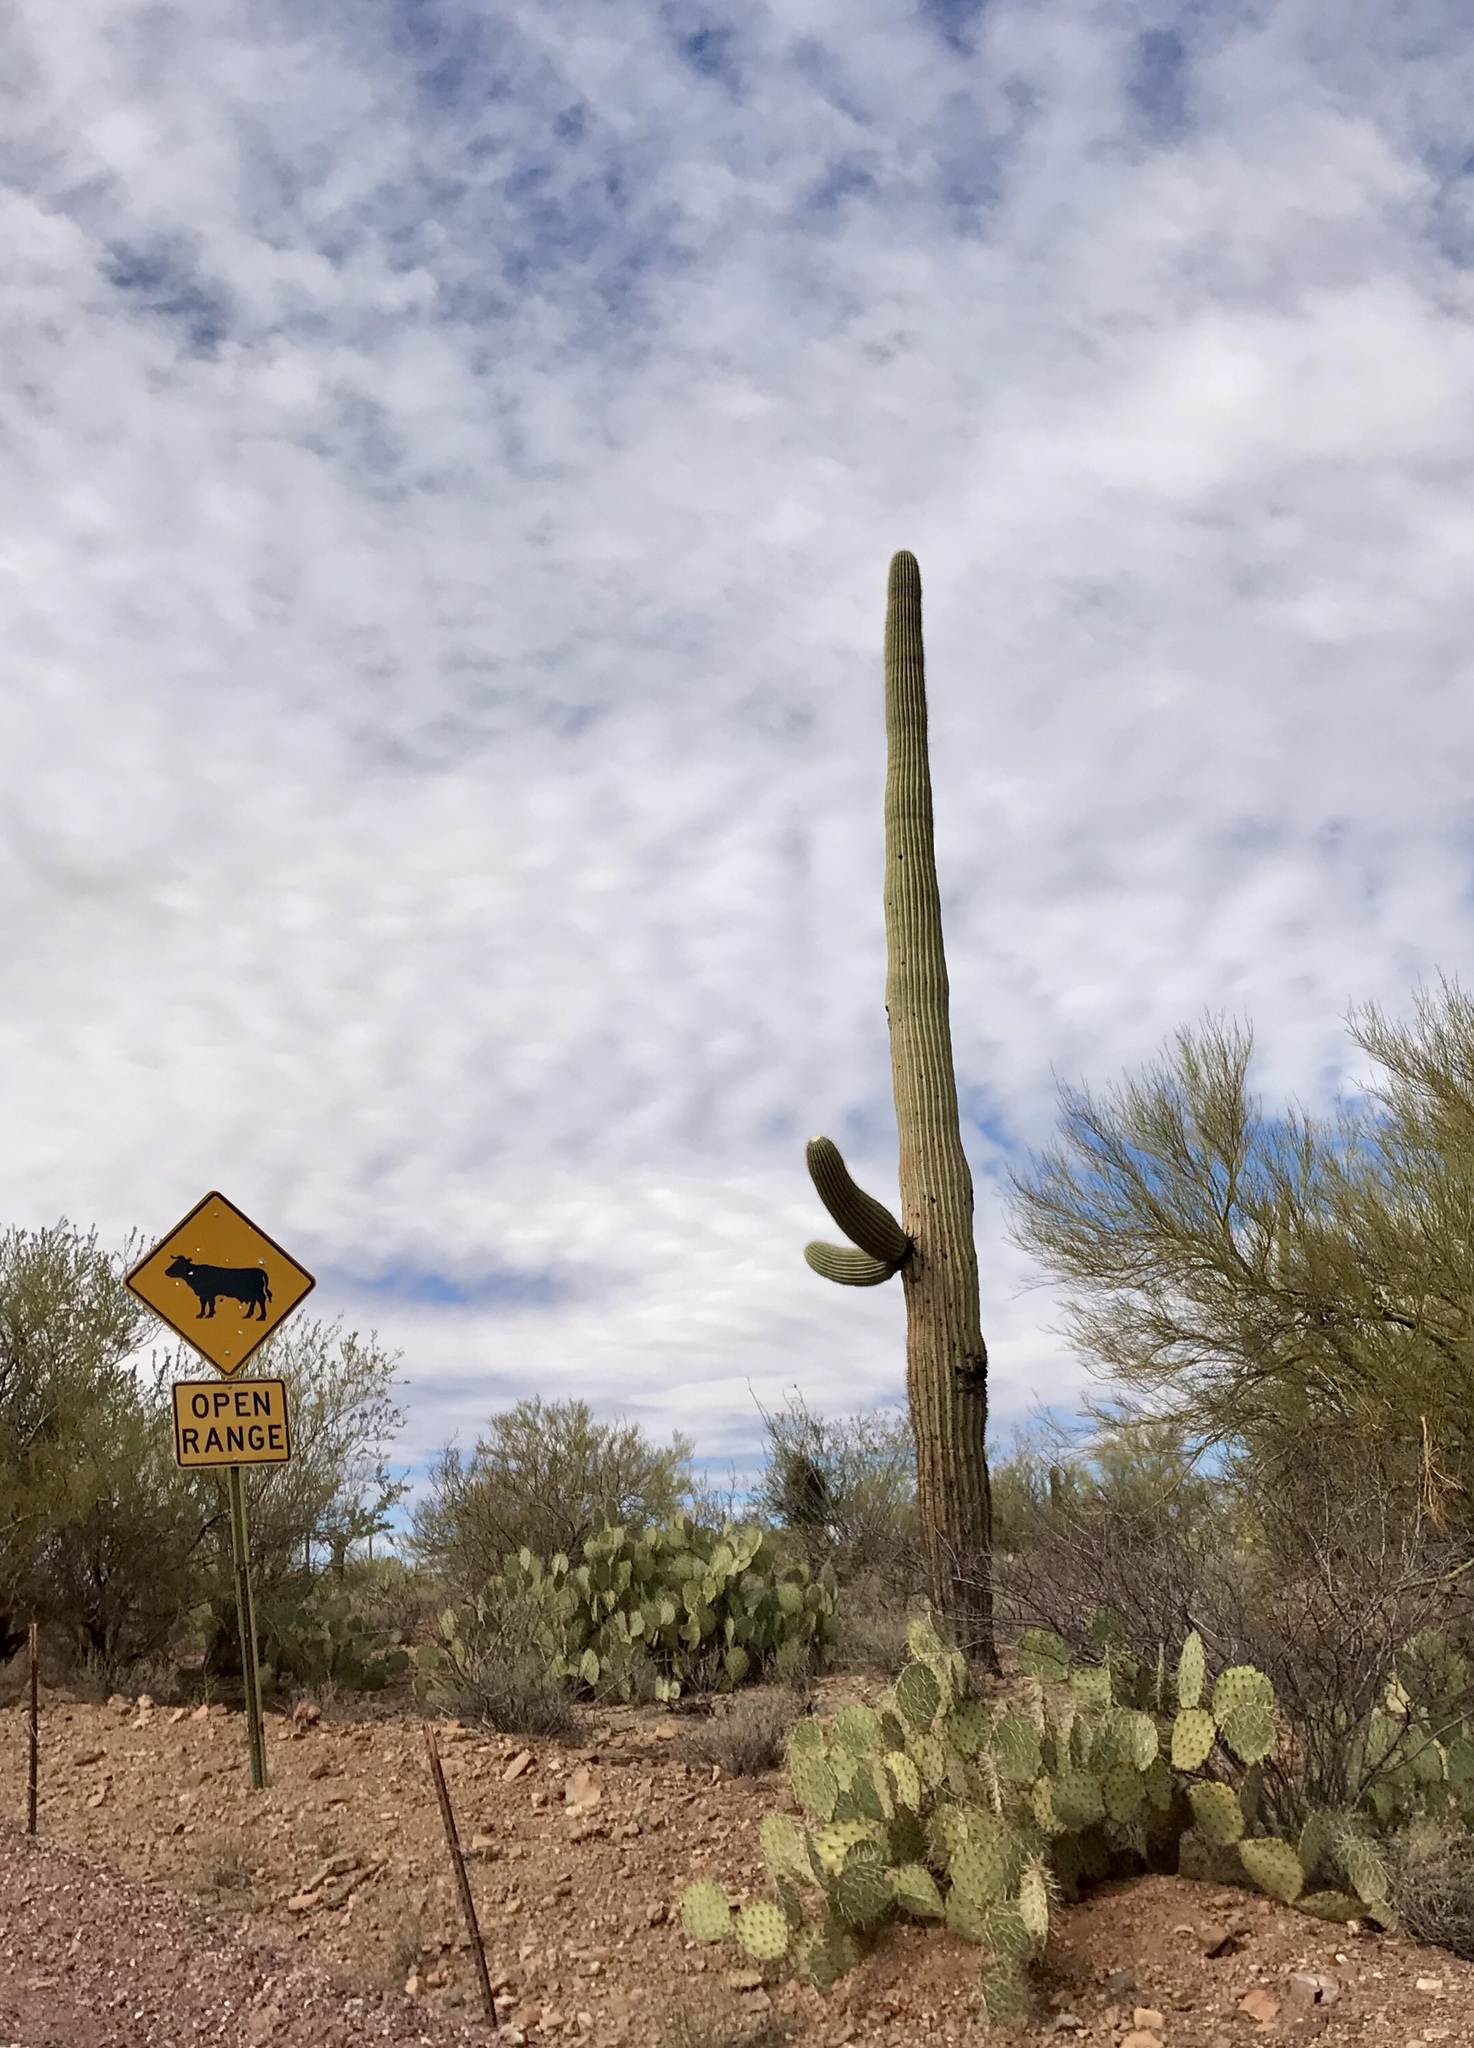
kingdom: Plantae
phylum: Tracheophyta
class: Magnoliopsida
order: Caryophyllales
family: Cactaceae
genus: Carnegiea
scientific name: Carnegiea gigantea
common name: Saguaro
